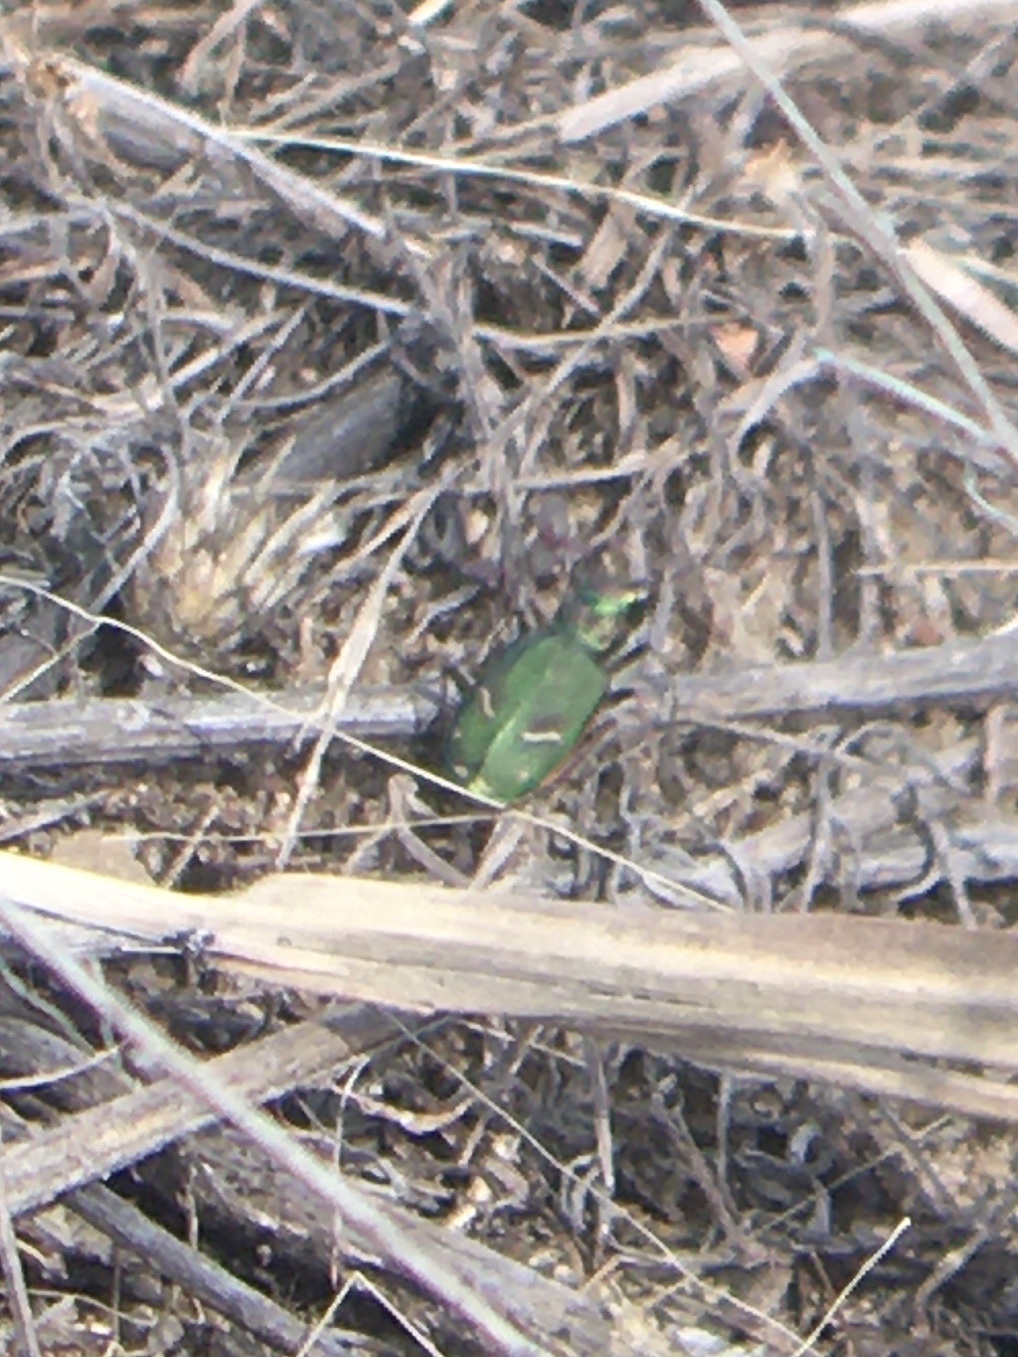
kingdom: Animalia
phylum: Arthropoda
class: Insecta
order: Coleoptera
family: Carabidae
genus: Cicindela
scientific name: Cicindela purpurea
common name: Cow path tiger beetle
